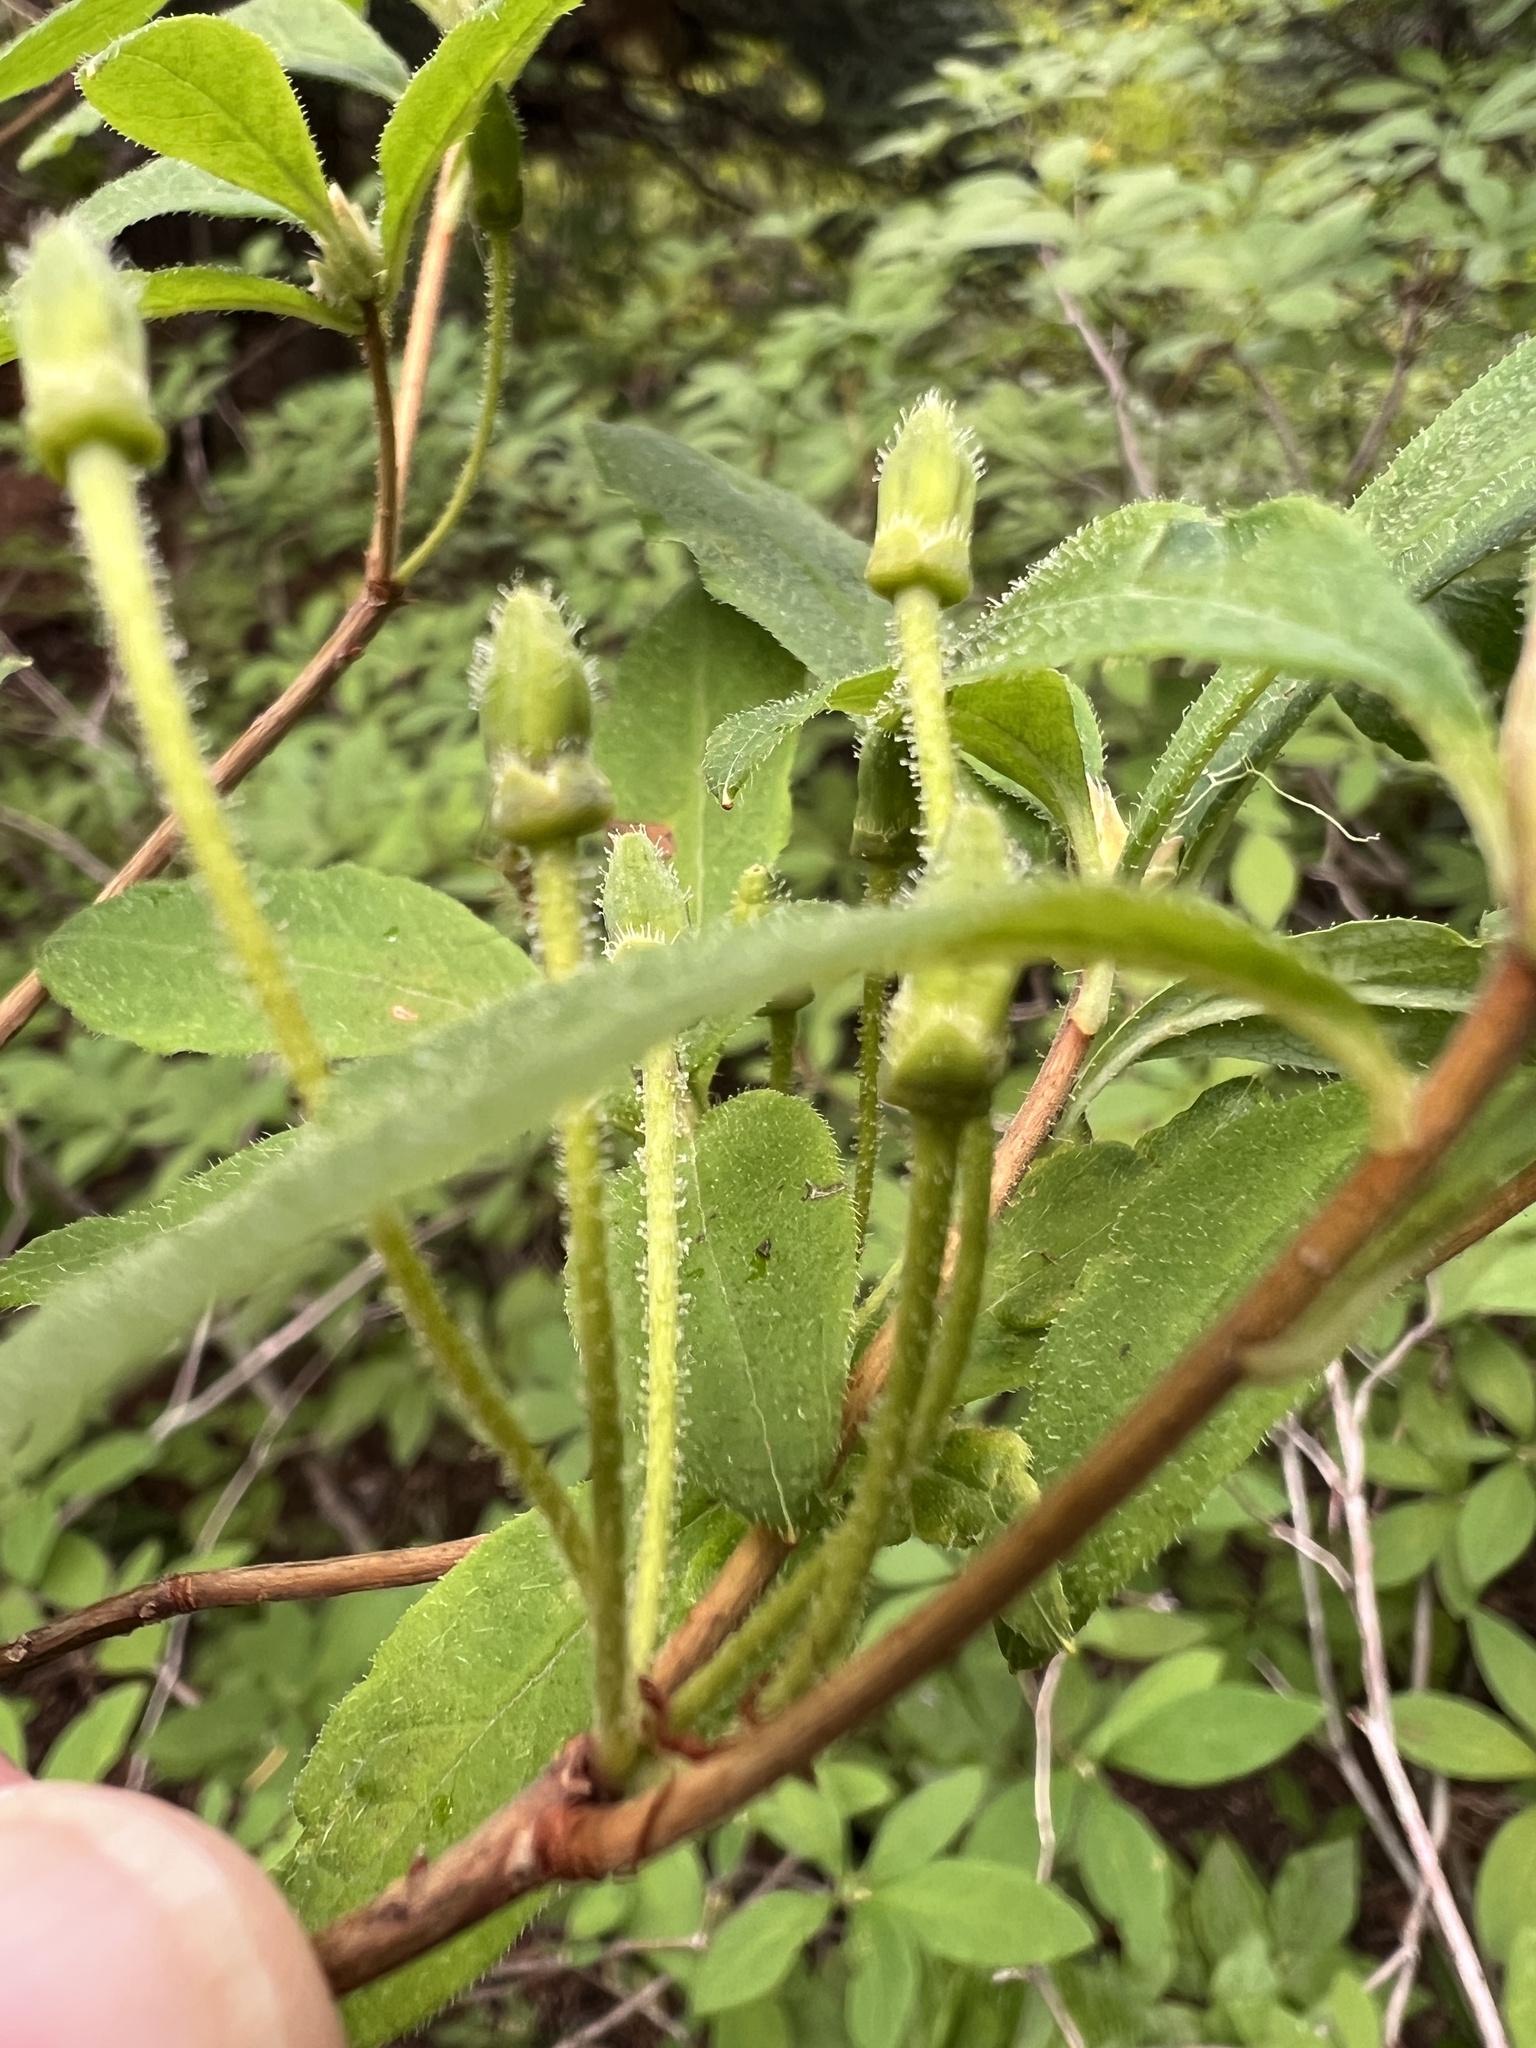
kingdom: Plantae
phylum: Tracheophyta
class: Magnoliopsida
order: Ericales
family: Ericaceae
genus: Rhododendron
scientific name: Rhododendron menziesii
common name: Pacific menziesia
